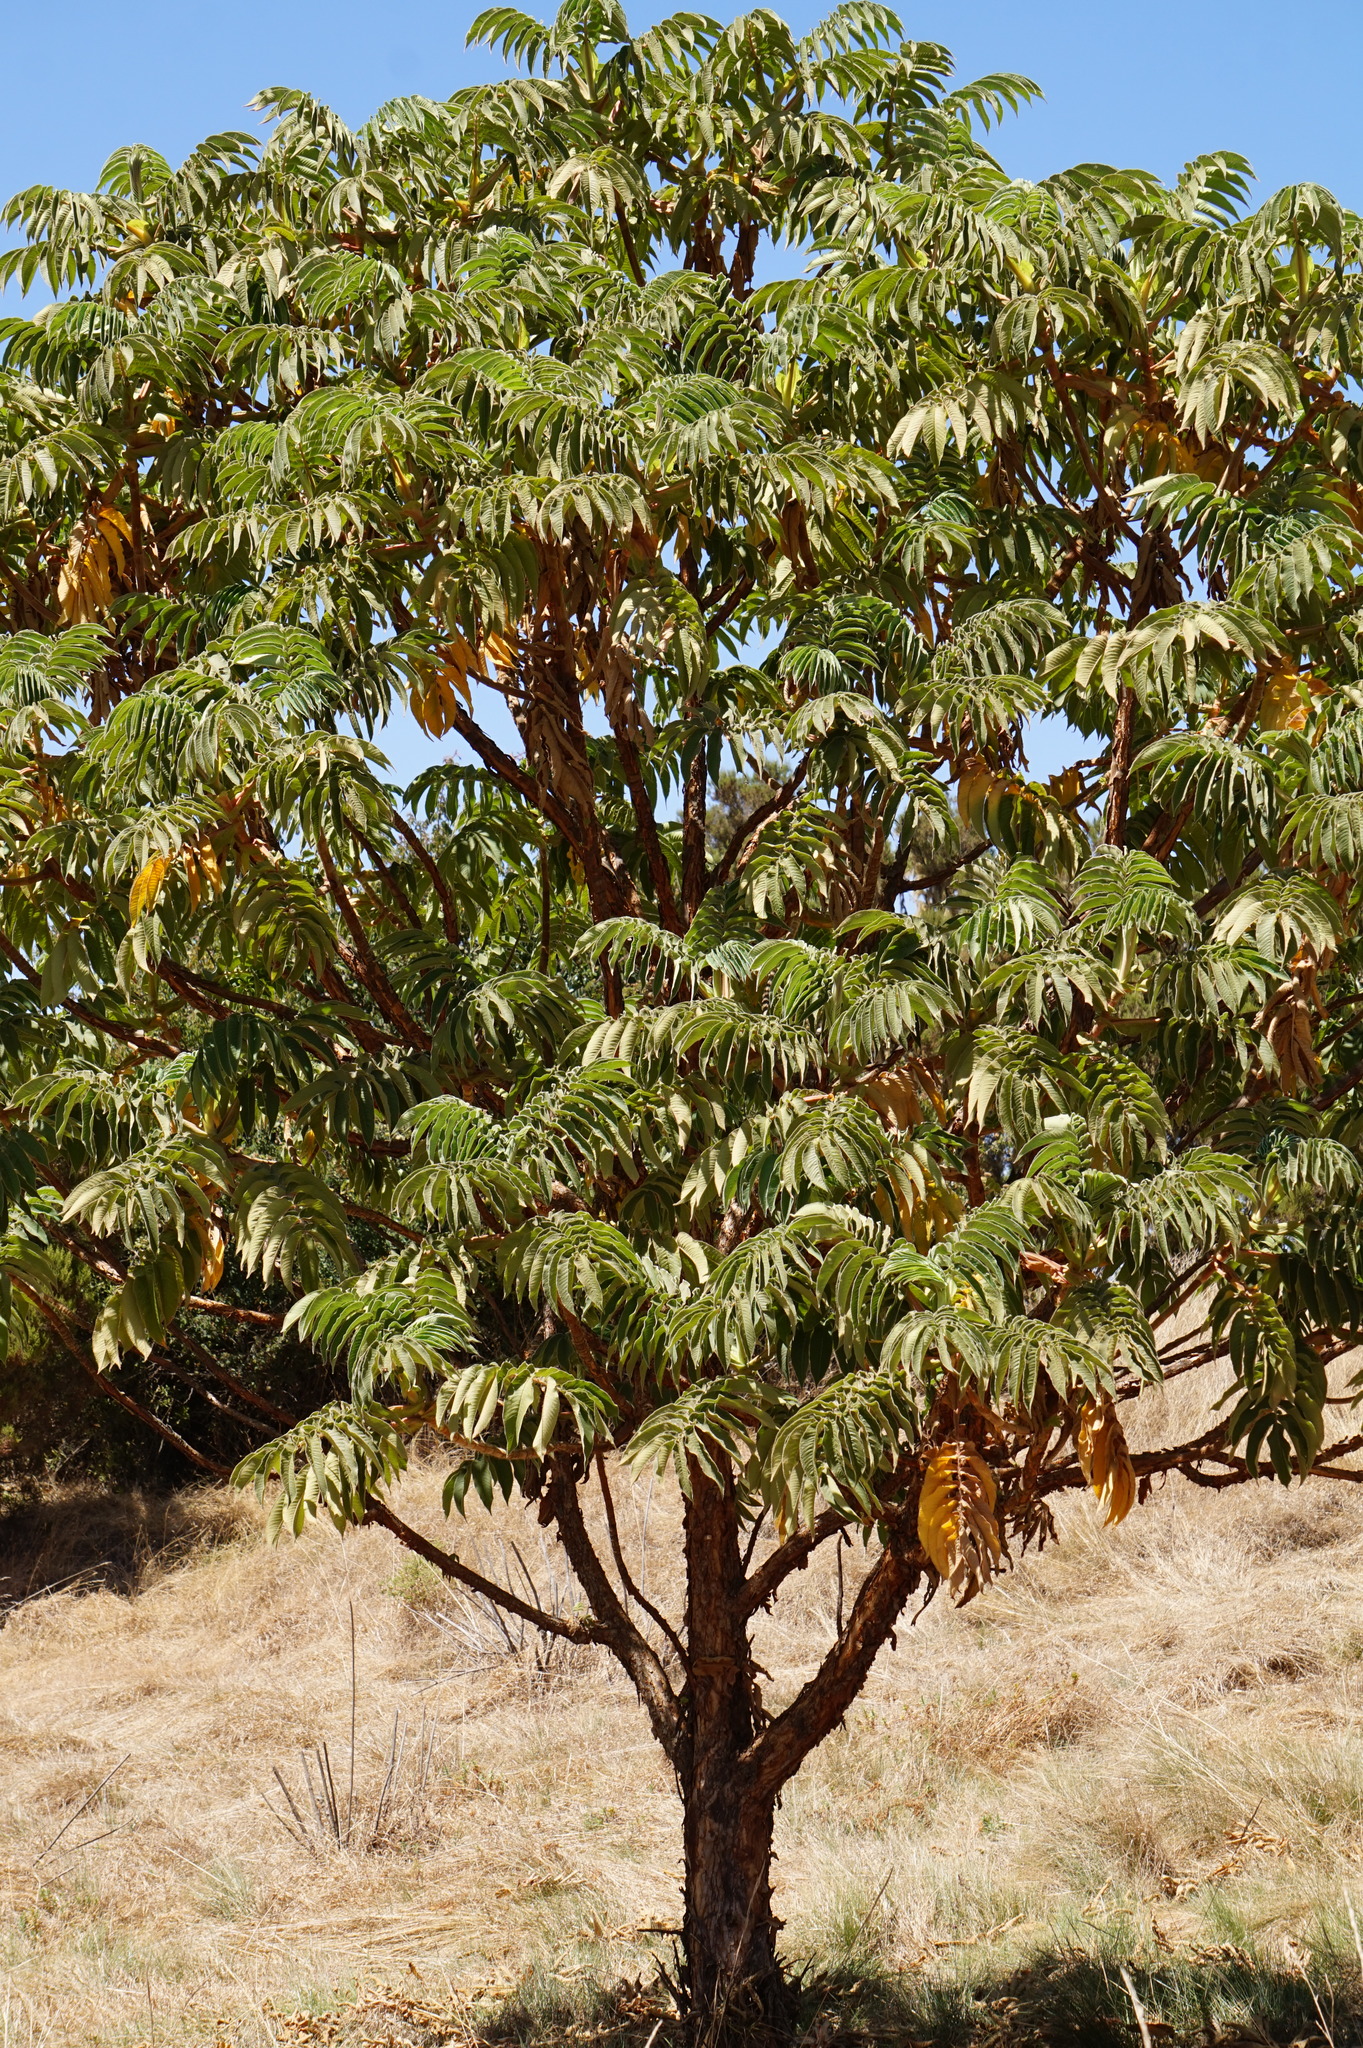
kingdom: Plantae
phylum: Tracheophyta
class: Magnoliopsida
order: Rosales
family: Rosaceae
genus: Hagenia
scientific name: Hagenia abyssinica
